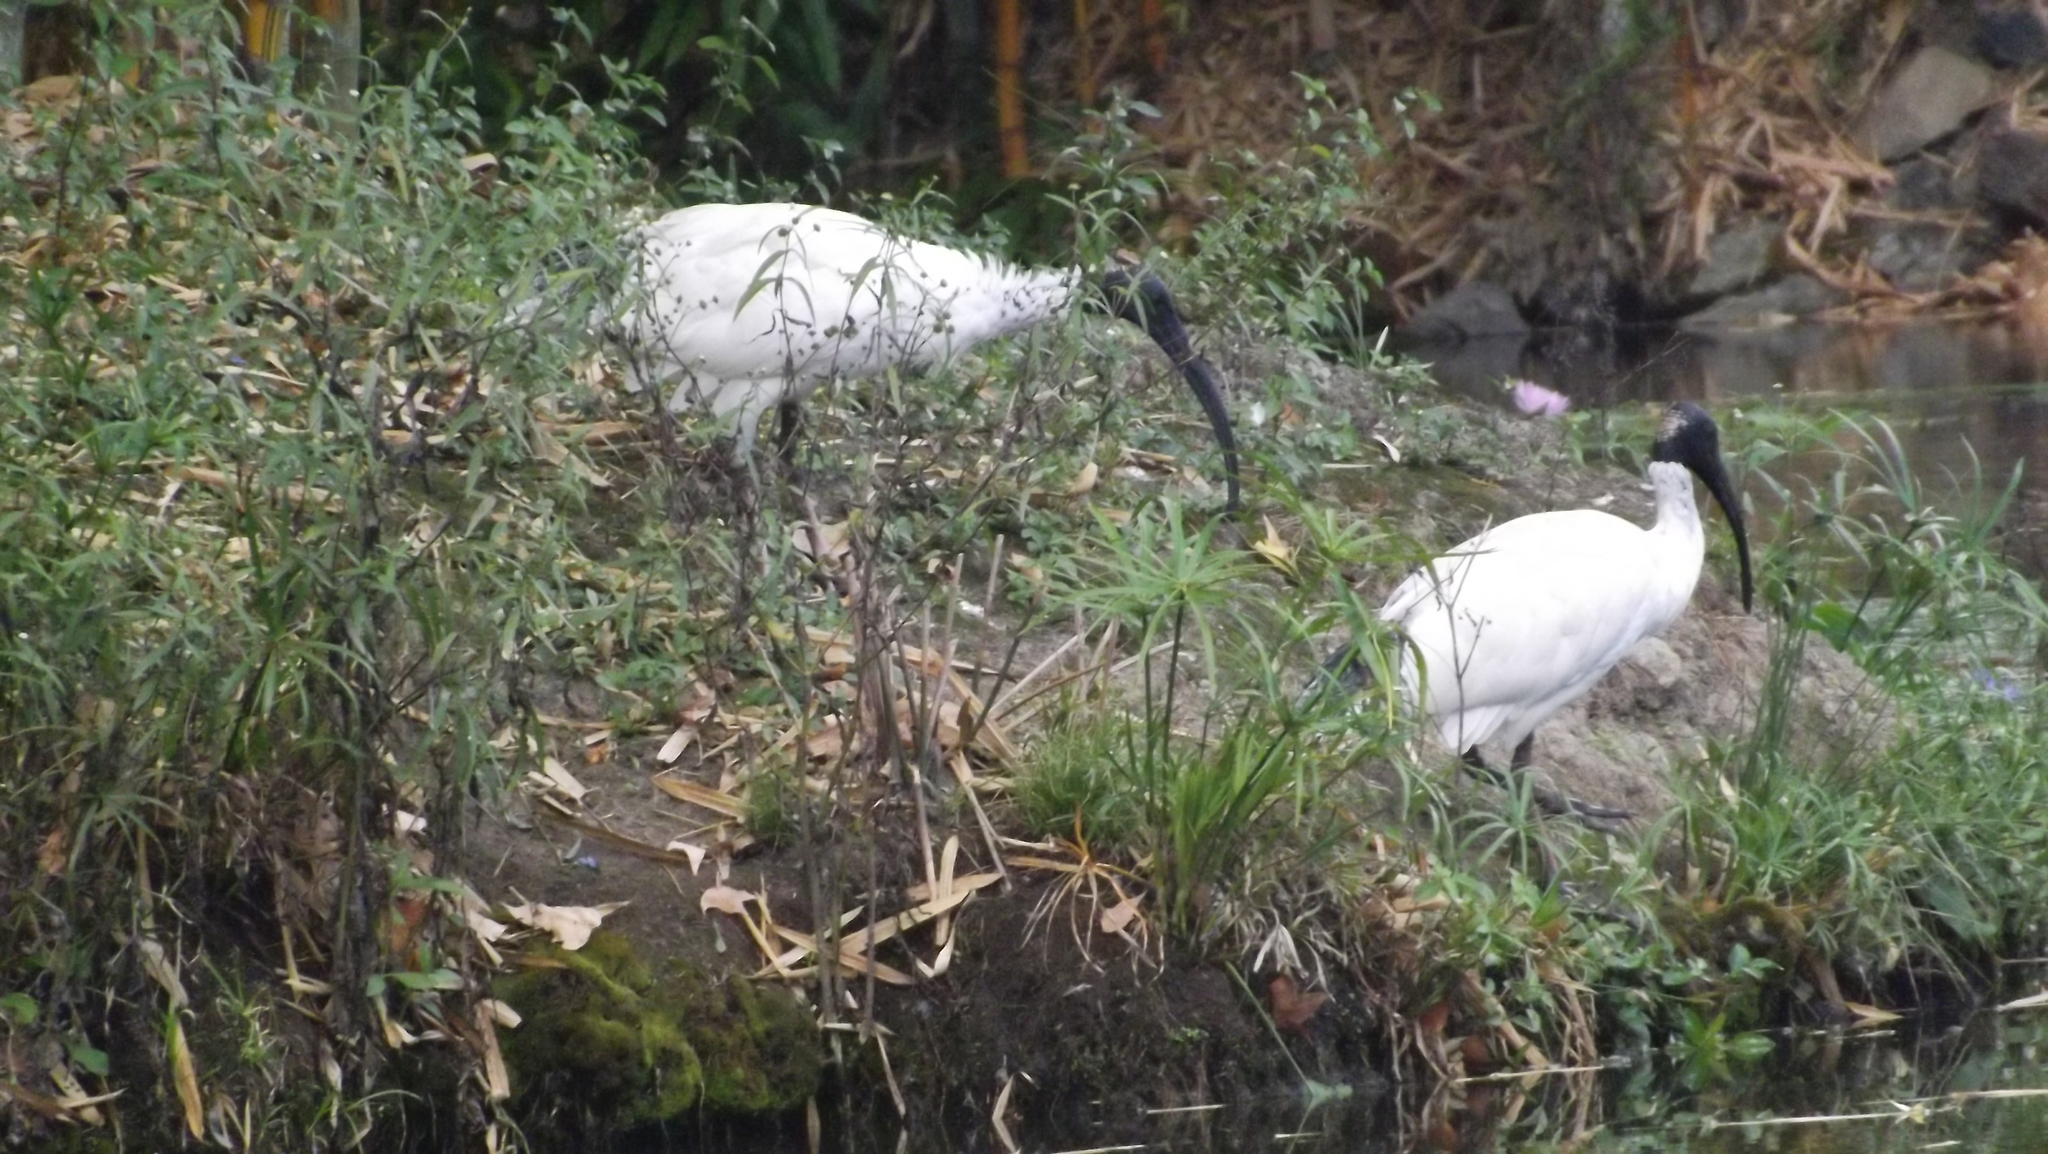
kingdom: Animalia
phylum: Chordata
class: Aves
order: Pelecaniformes
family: Threskiornithidae
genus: Threskiornis
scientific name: Threskiornis molucca
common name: Australian white ibis
